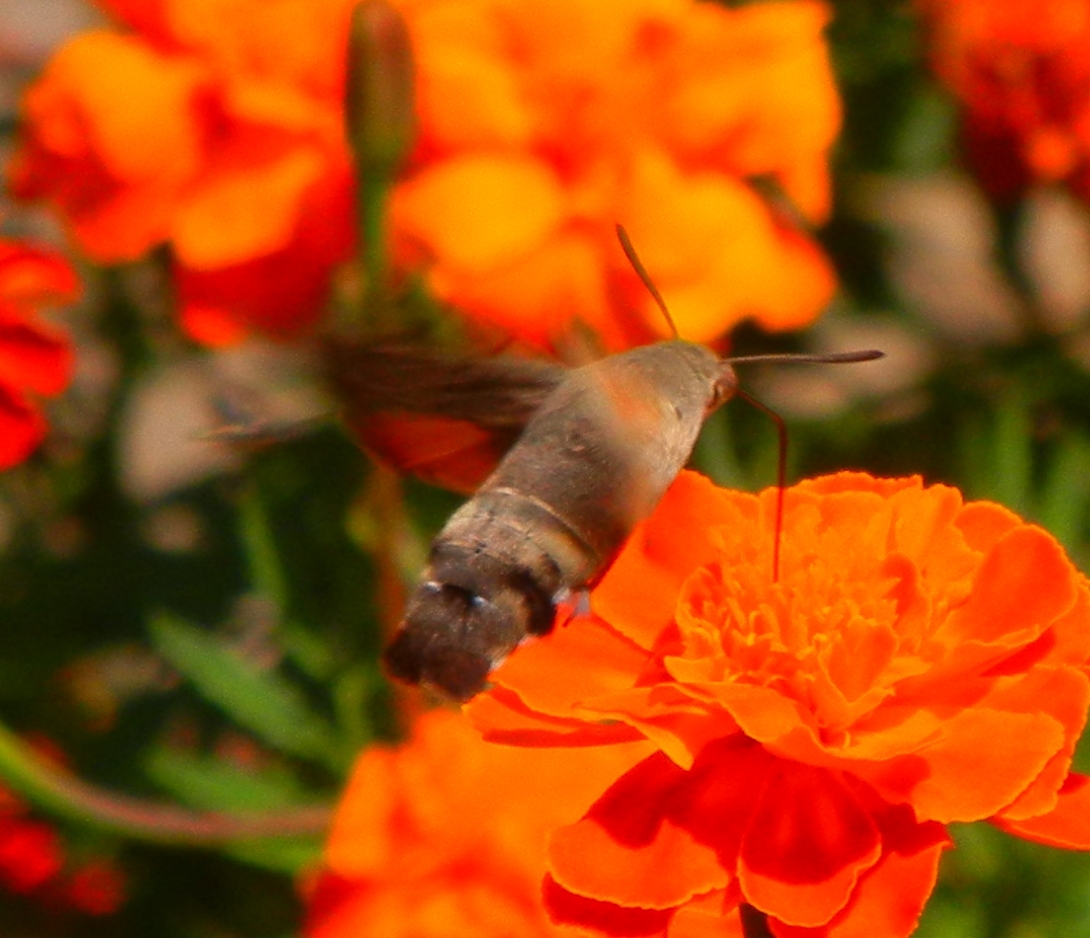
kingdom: Animalia
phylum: Arthropoda
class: Insecta
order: Lepidoptera
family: Sphingidae
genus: Macroglossum
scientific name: Macroglossum stellatarum
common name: Humming-bird hawk-moth
